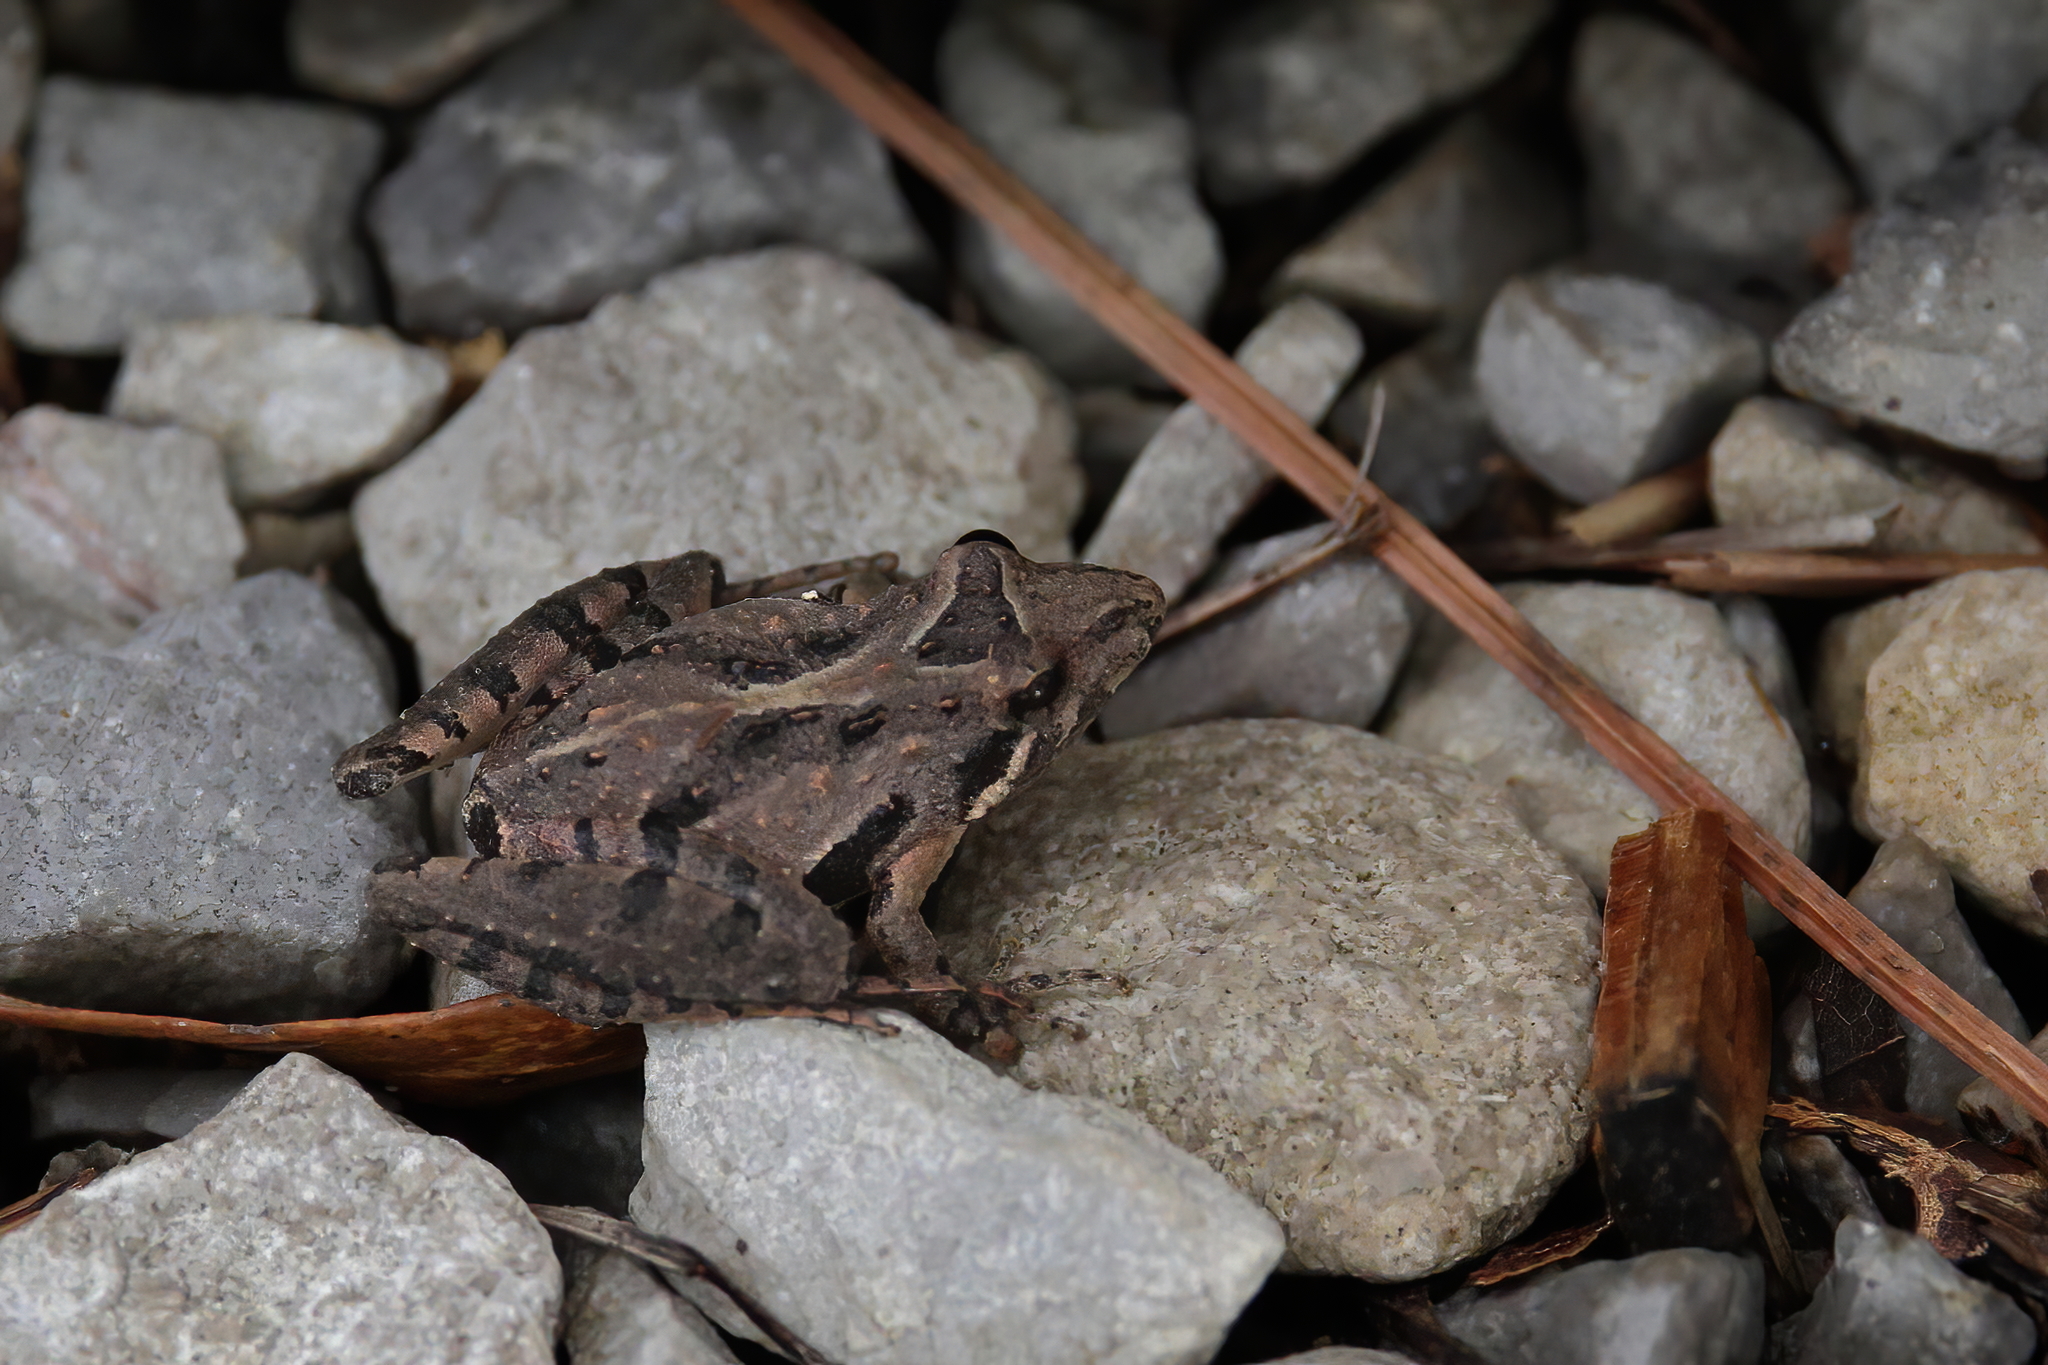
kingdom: Animalia
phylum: Chordata
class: Amphibia
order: Anura
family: Hylidae
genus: Acris
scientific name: Acris gryllus
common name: Southern cricket frog
